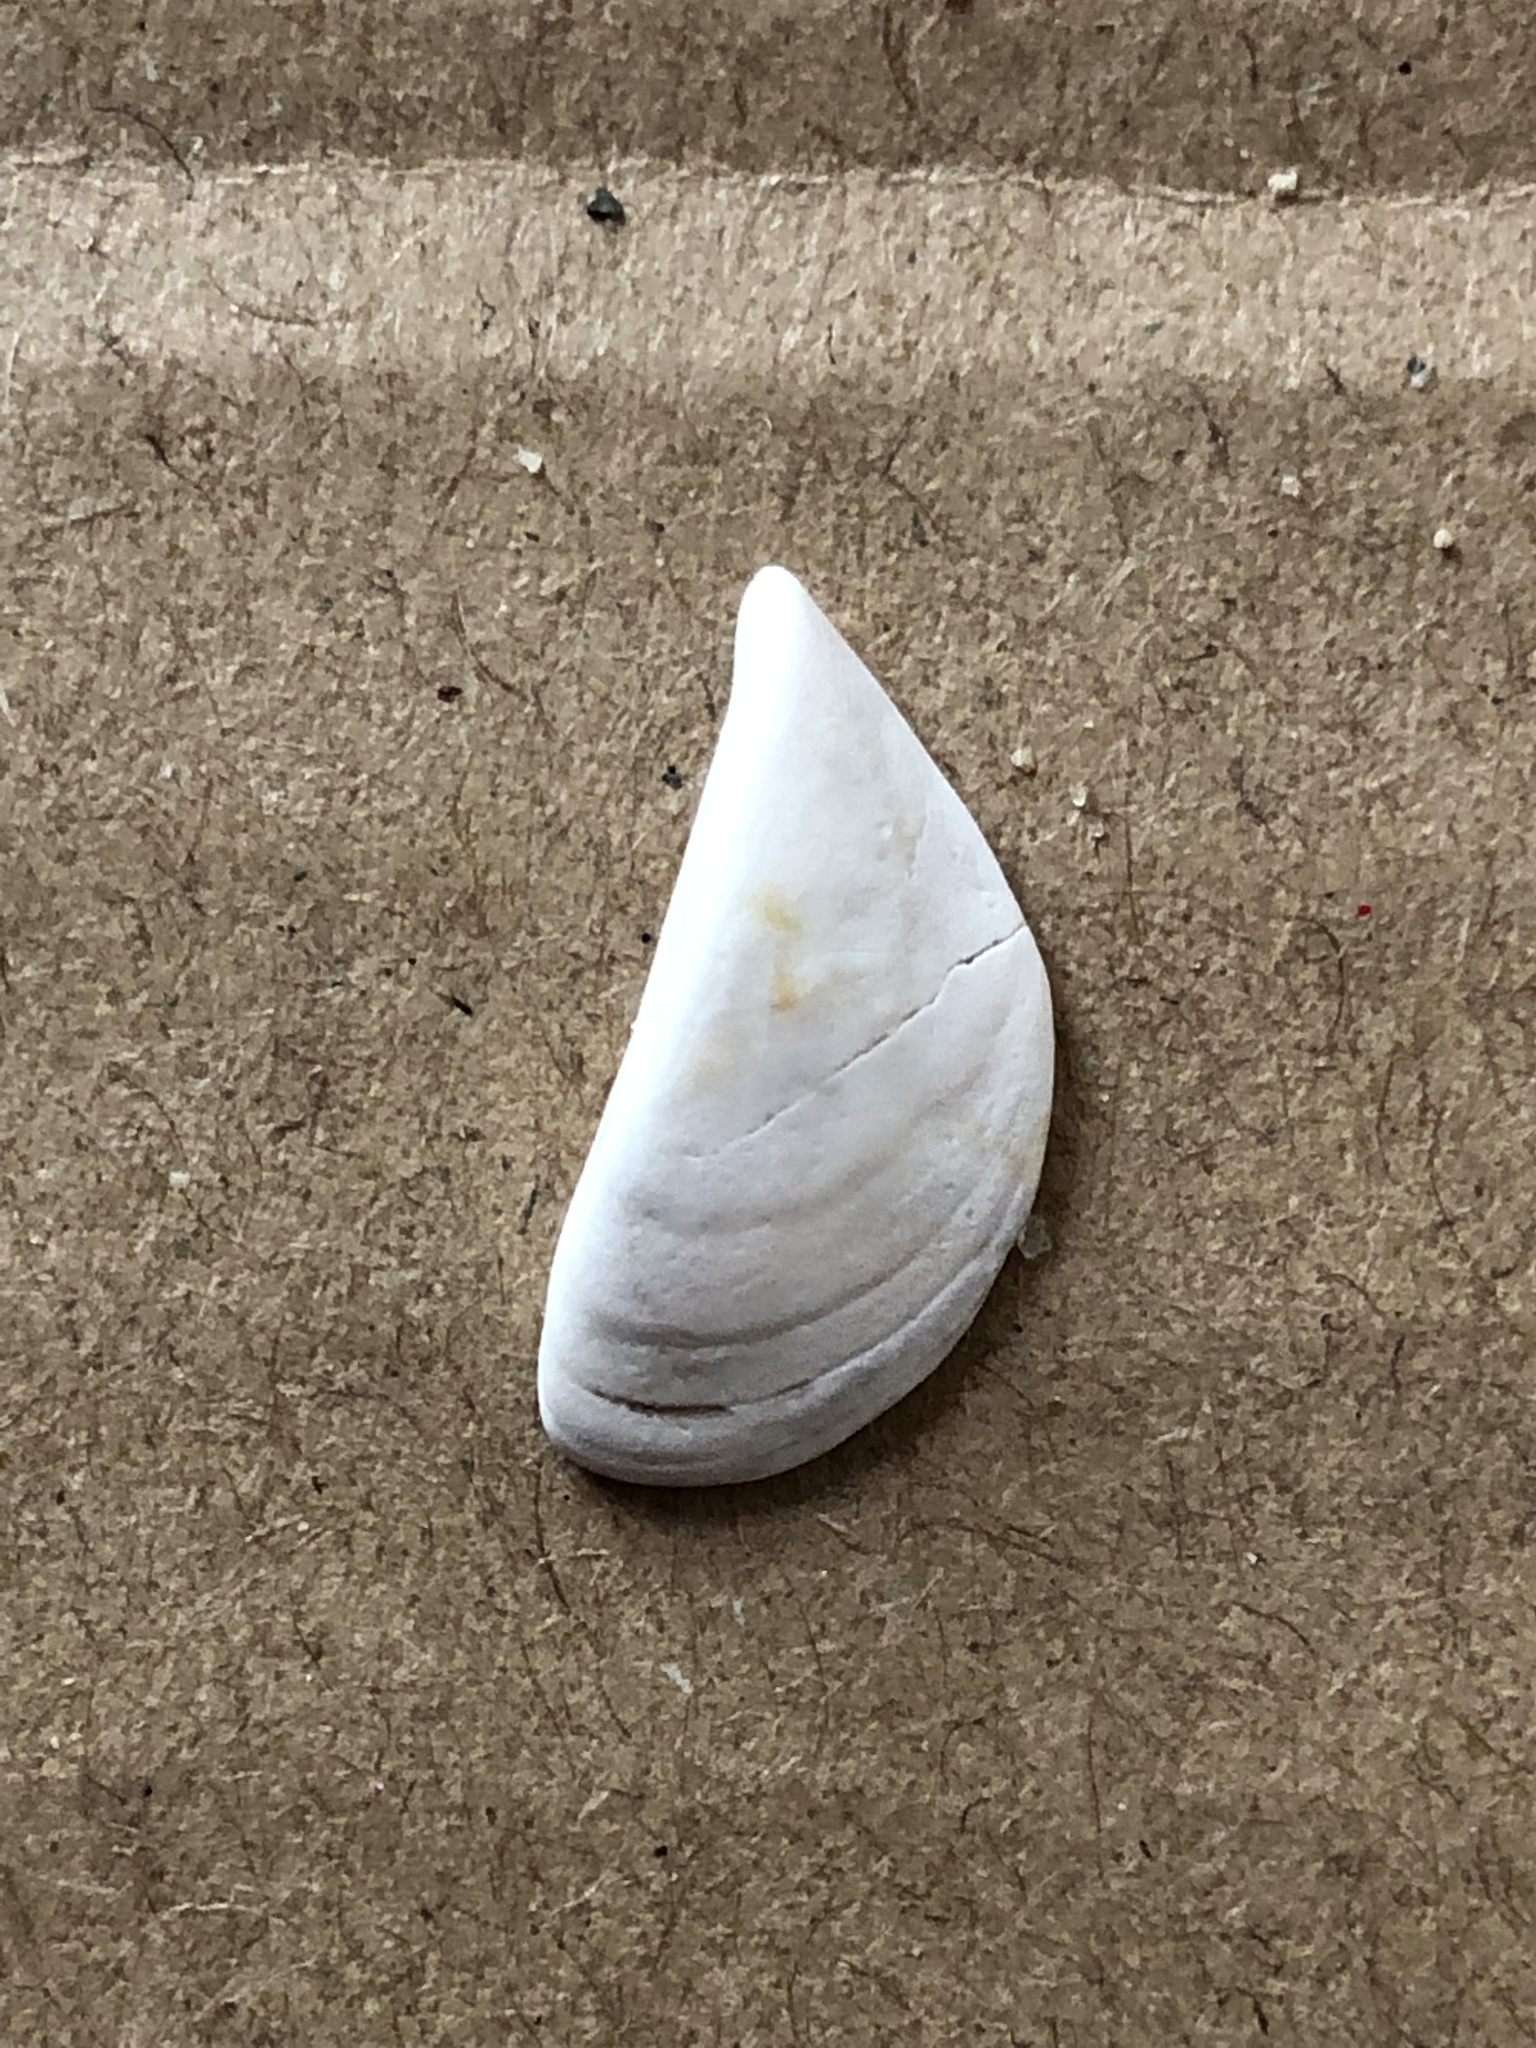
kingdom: Animalia
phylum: Mollusca
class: Bivalvia
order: Myida
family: Dreissenidae
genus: Dreissena
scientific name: Dreissena polymorpha
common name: Zebra mussel
